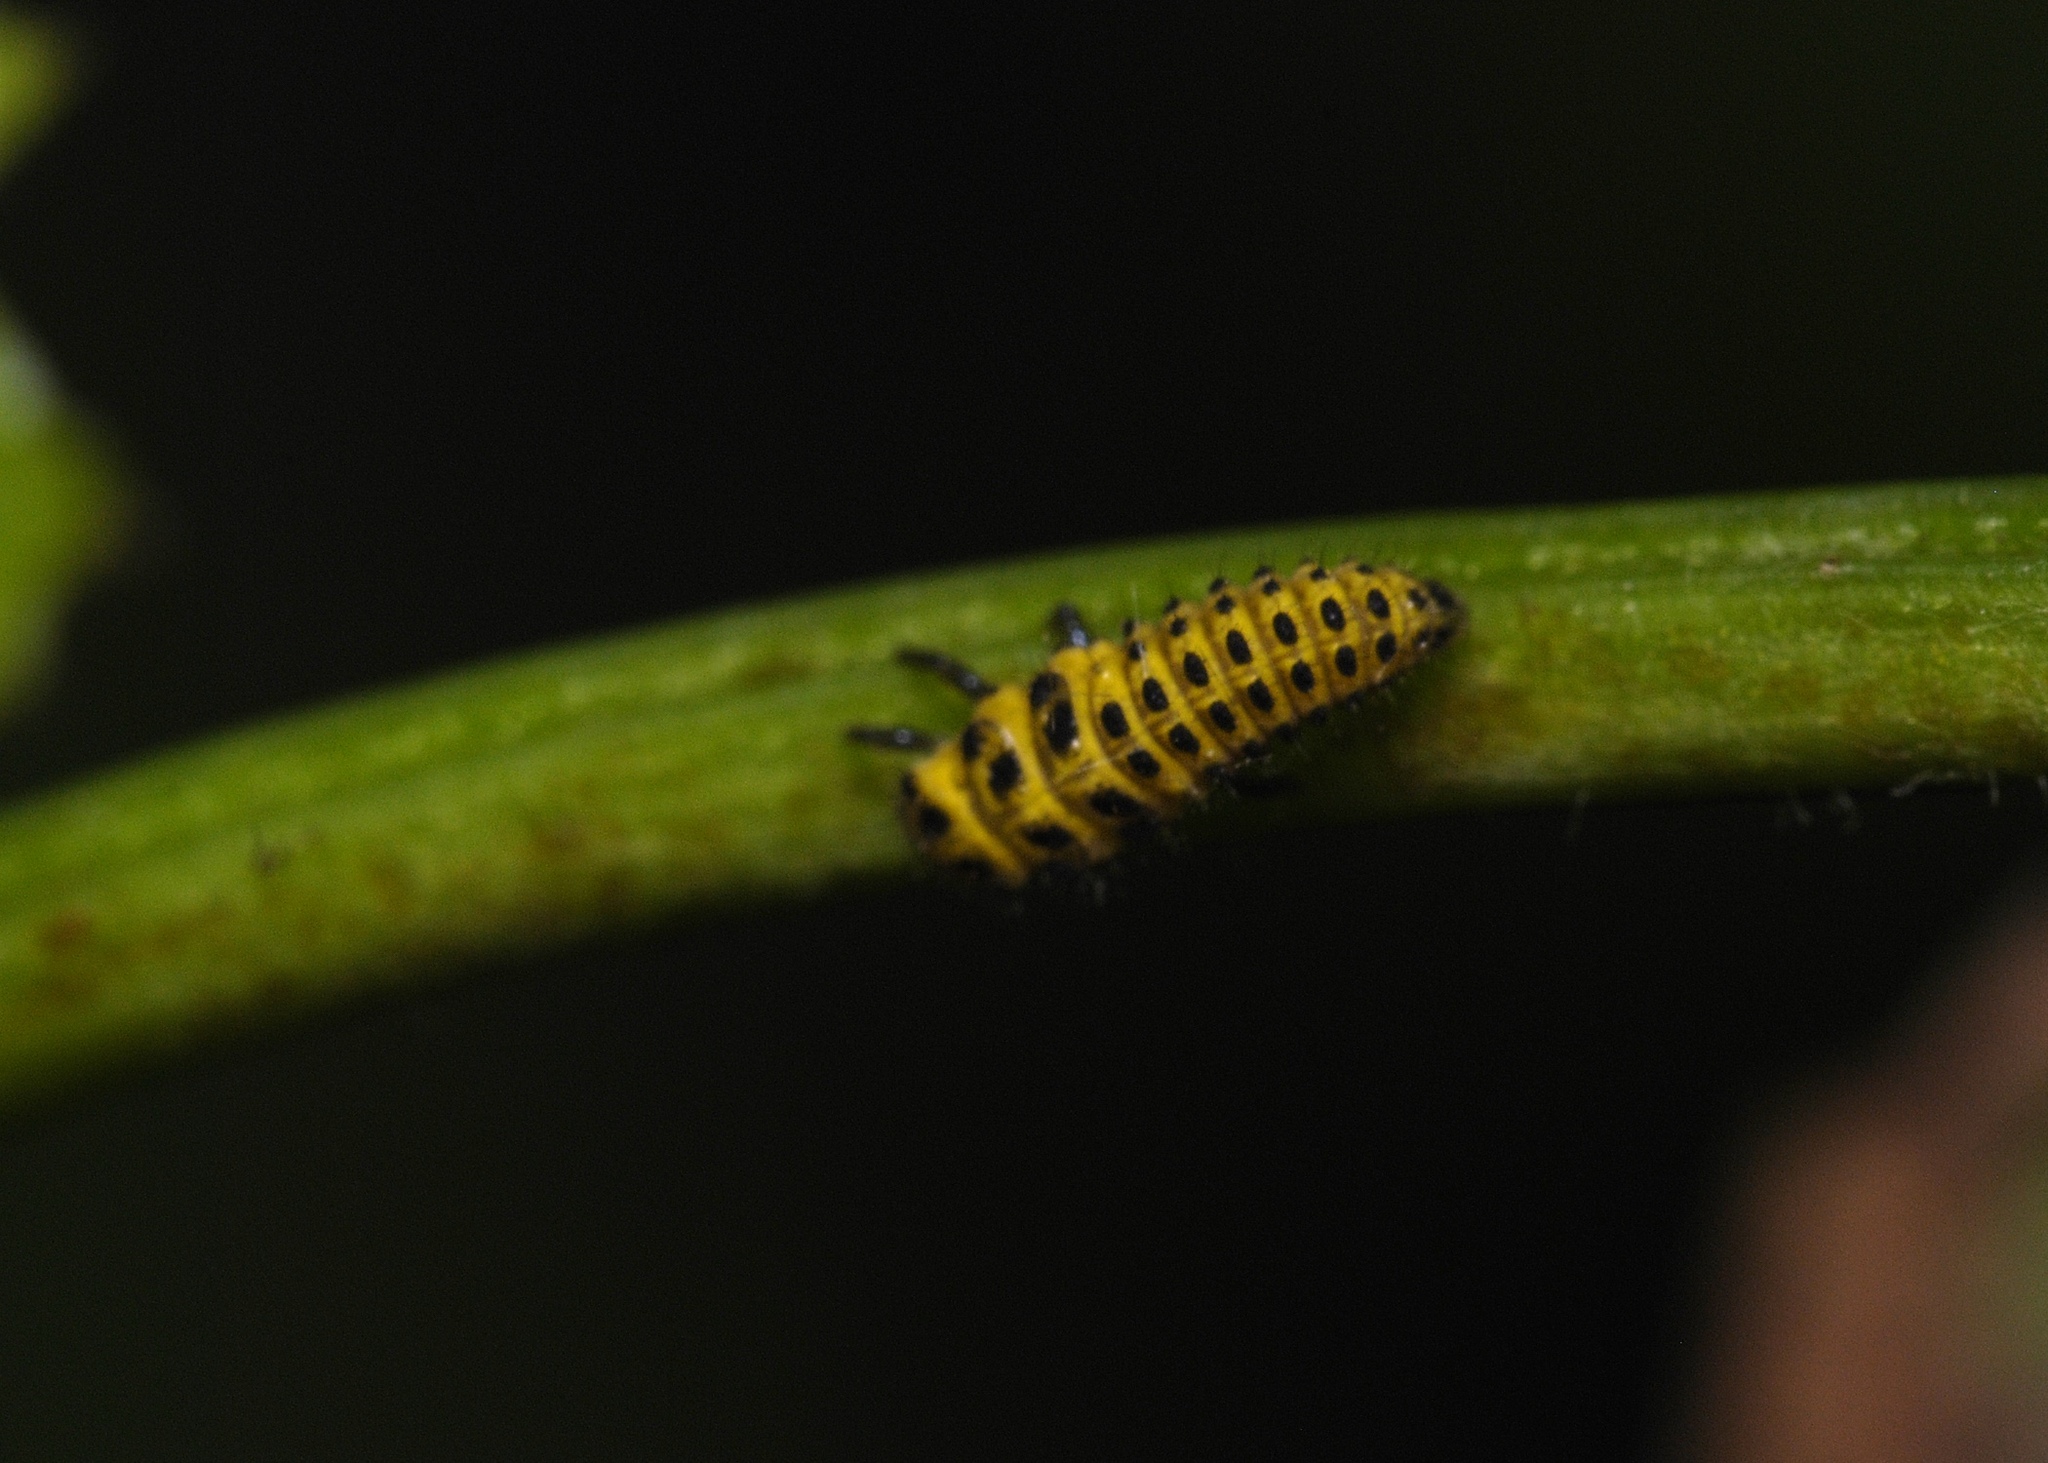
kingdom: Animalia
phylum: Arthropoda
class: Insecta
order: Coleoptera
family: Coccinellidae
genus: Psyllobora
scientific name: Psyllobora vigintiduopunctata
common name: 22-spot ladybird
